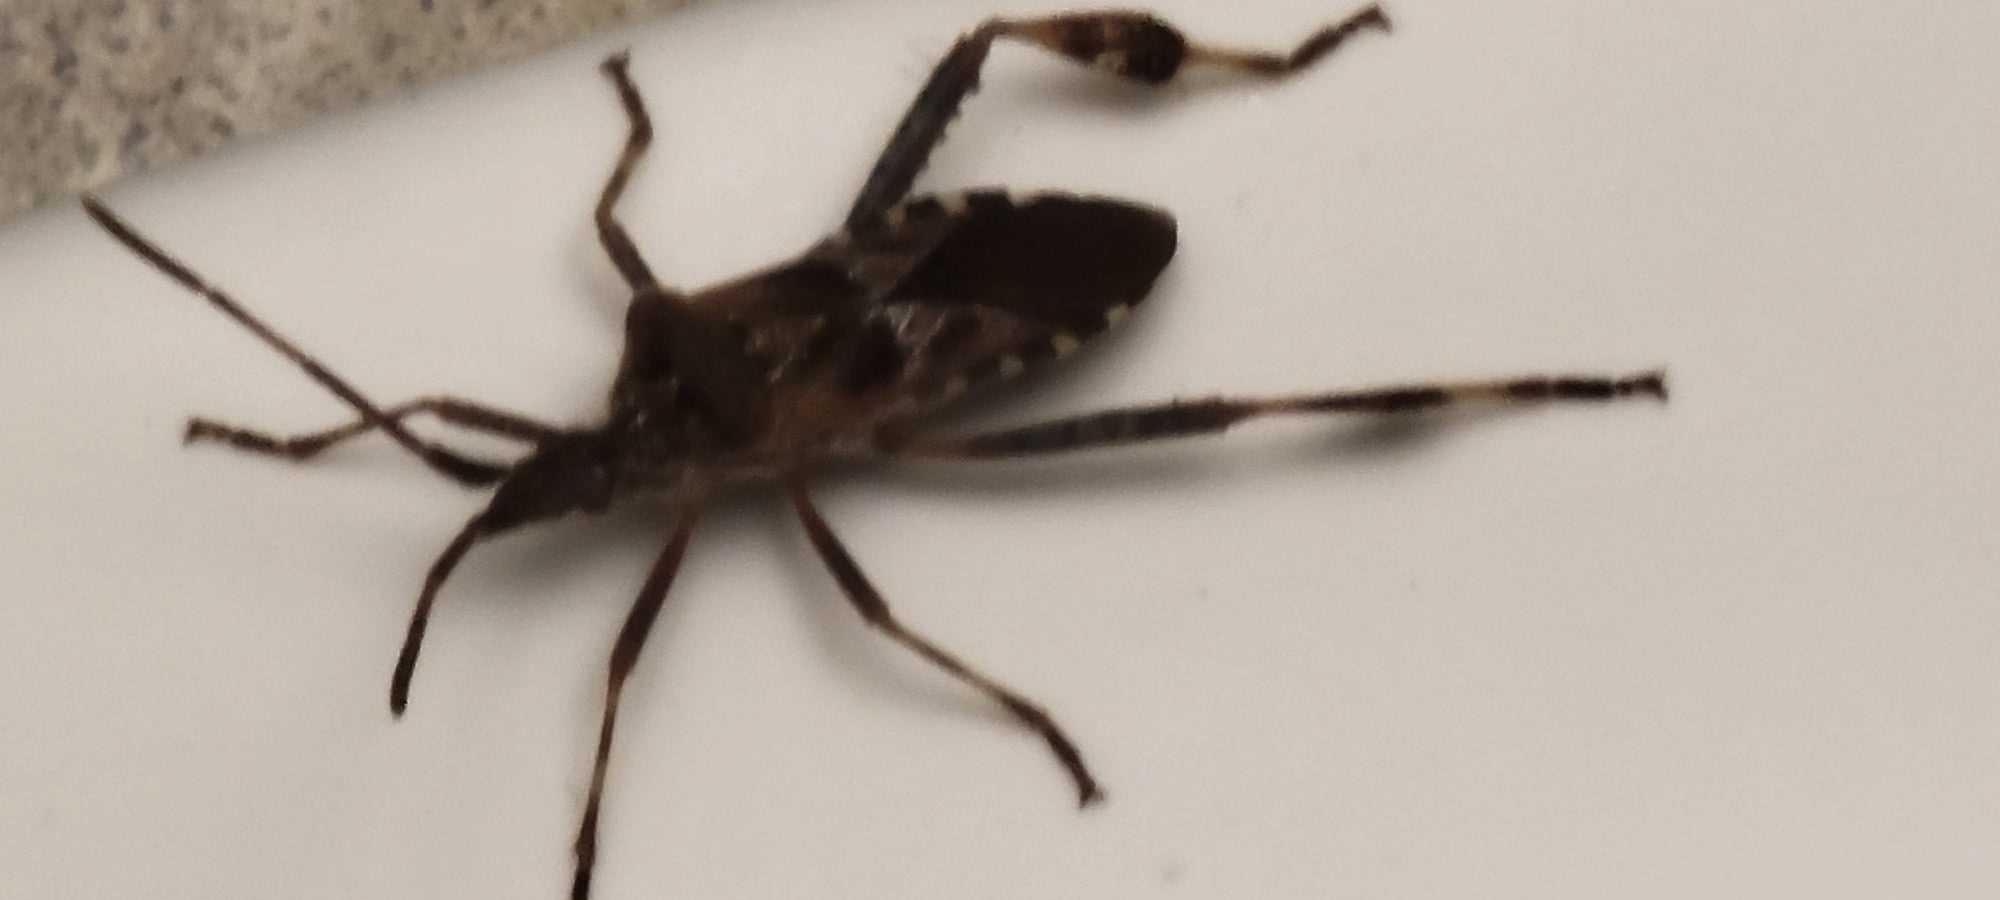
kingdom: Animalia
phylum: Arthropoda
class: Insecta
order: Hemiptera
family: Coreidae
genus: Leptoglossus
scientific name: Leptoglossus occidentalis
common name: Western conifer-seed bug
